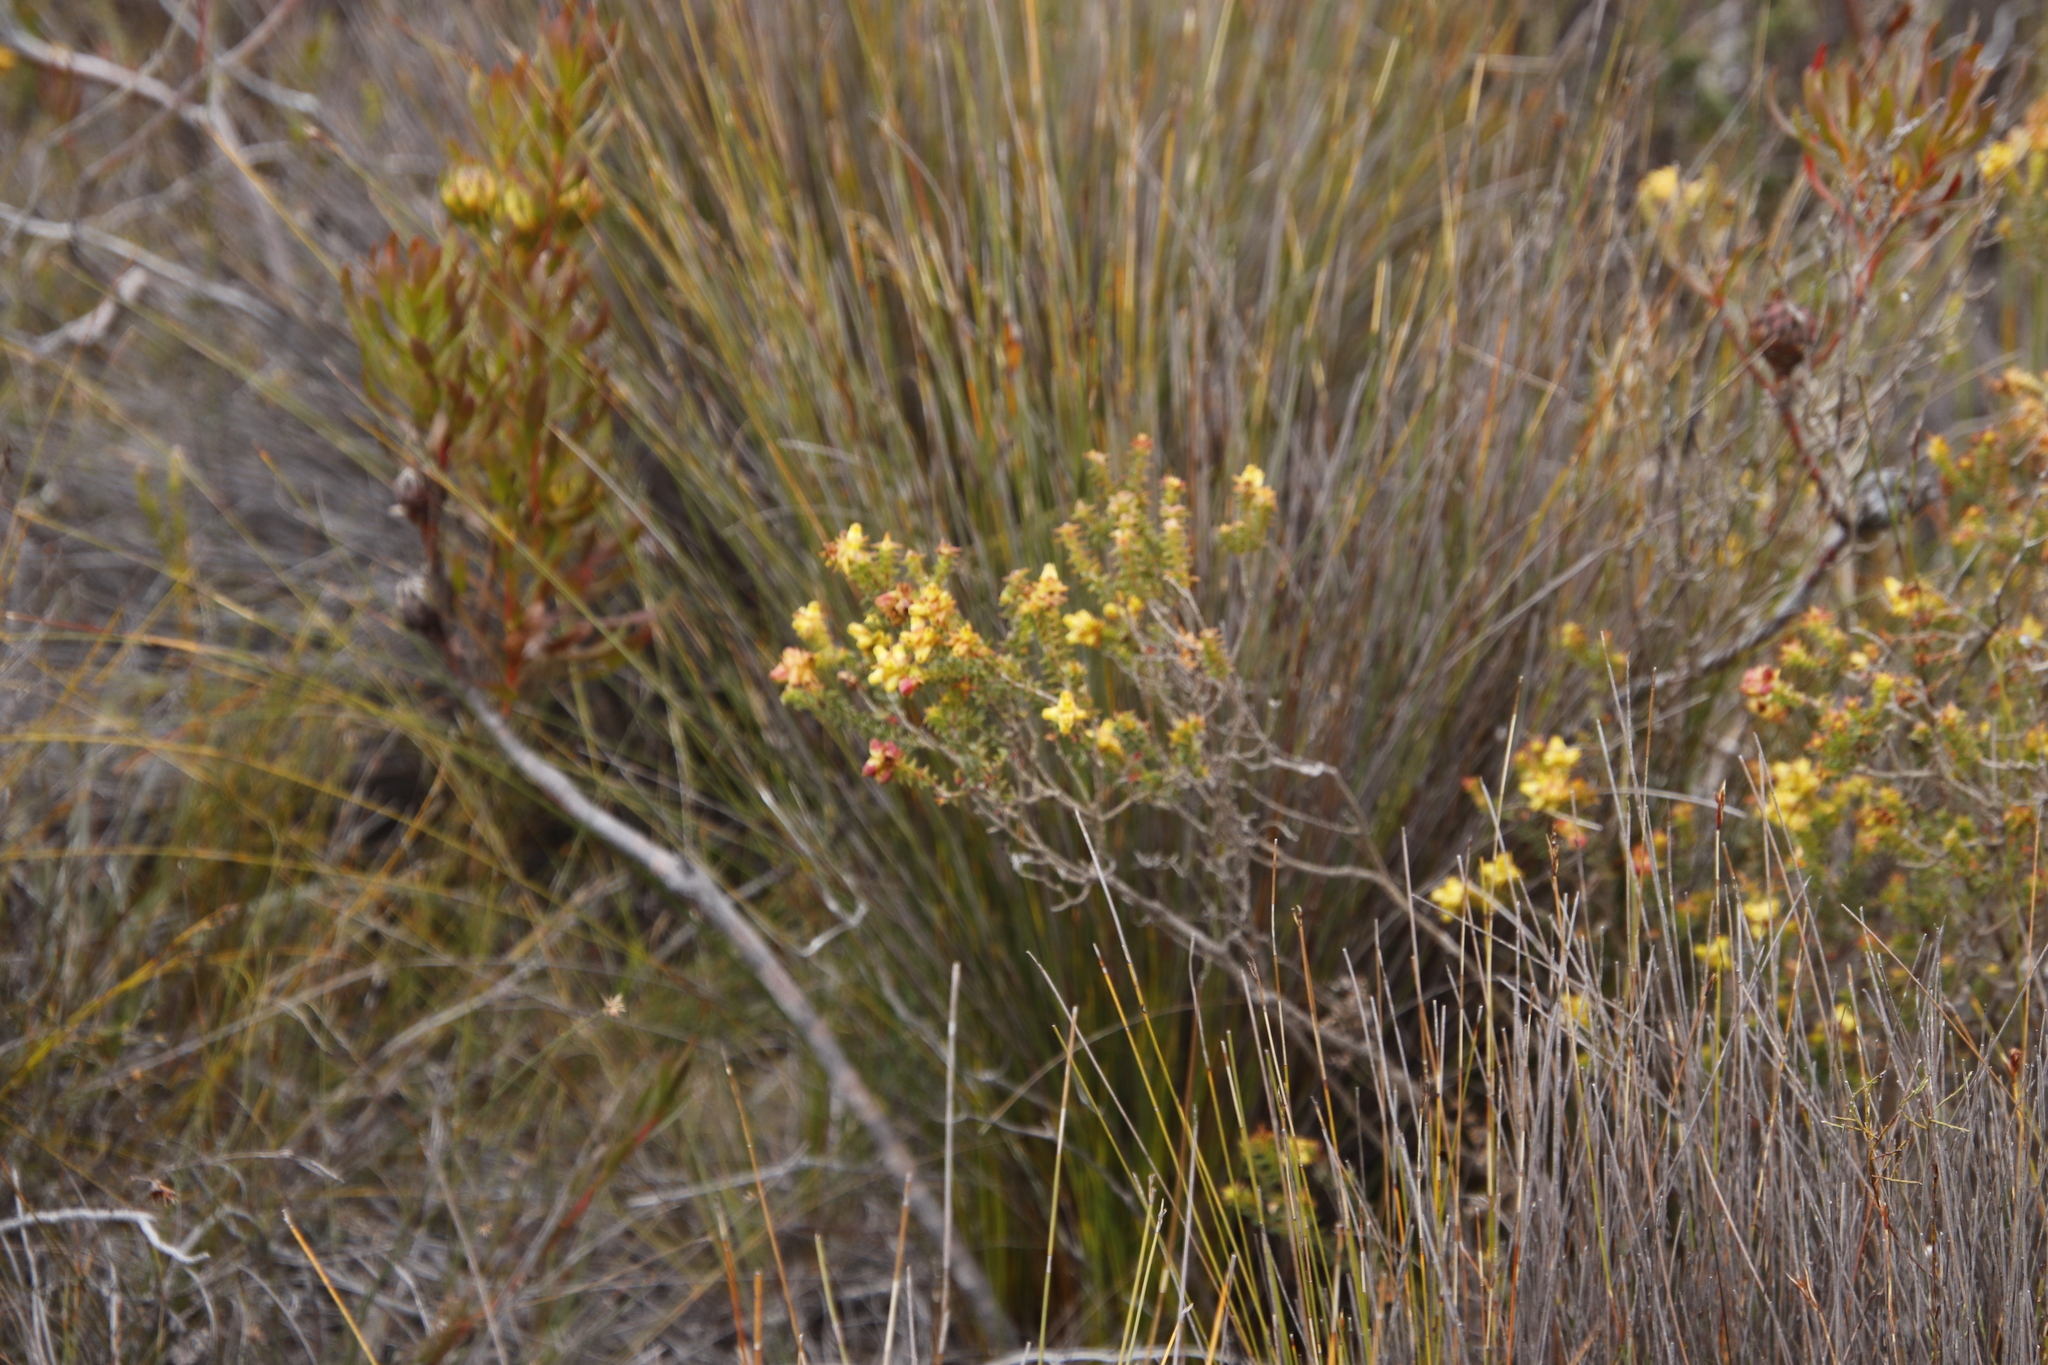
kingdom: Plantae
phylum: Tracheophyta
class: Magnoliopsida
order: Myrtales
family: Penaeaceae
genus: Penaea
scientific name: Penaea mucronata
